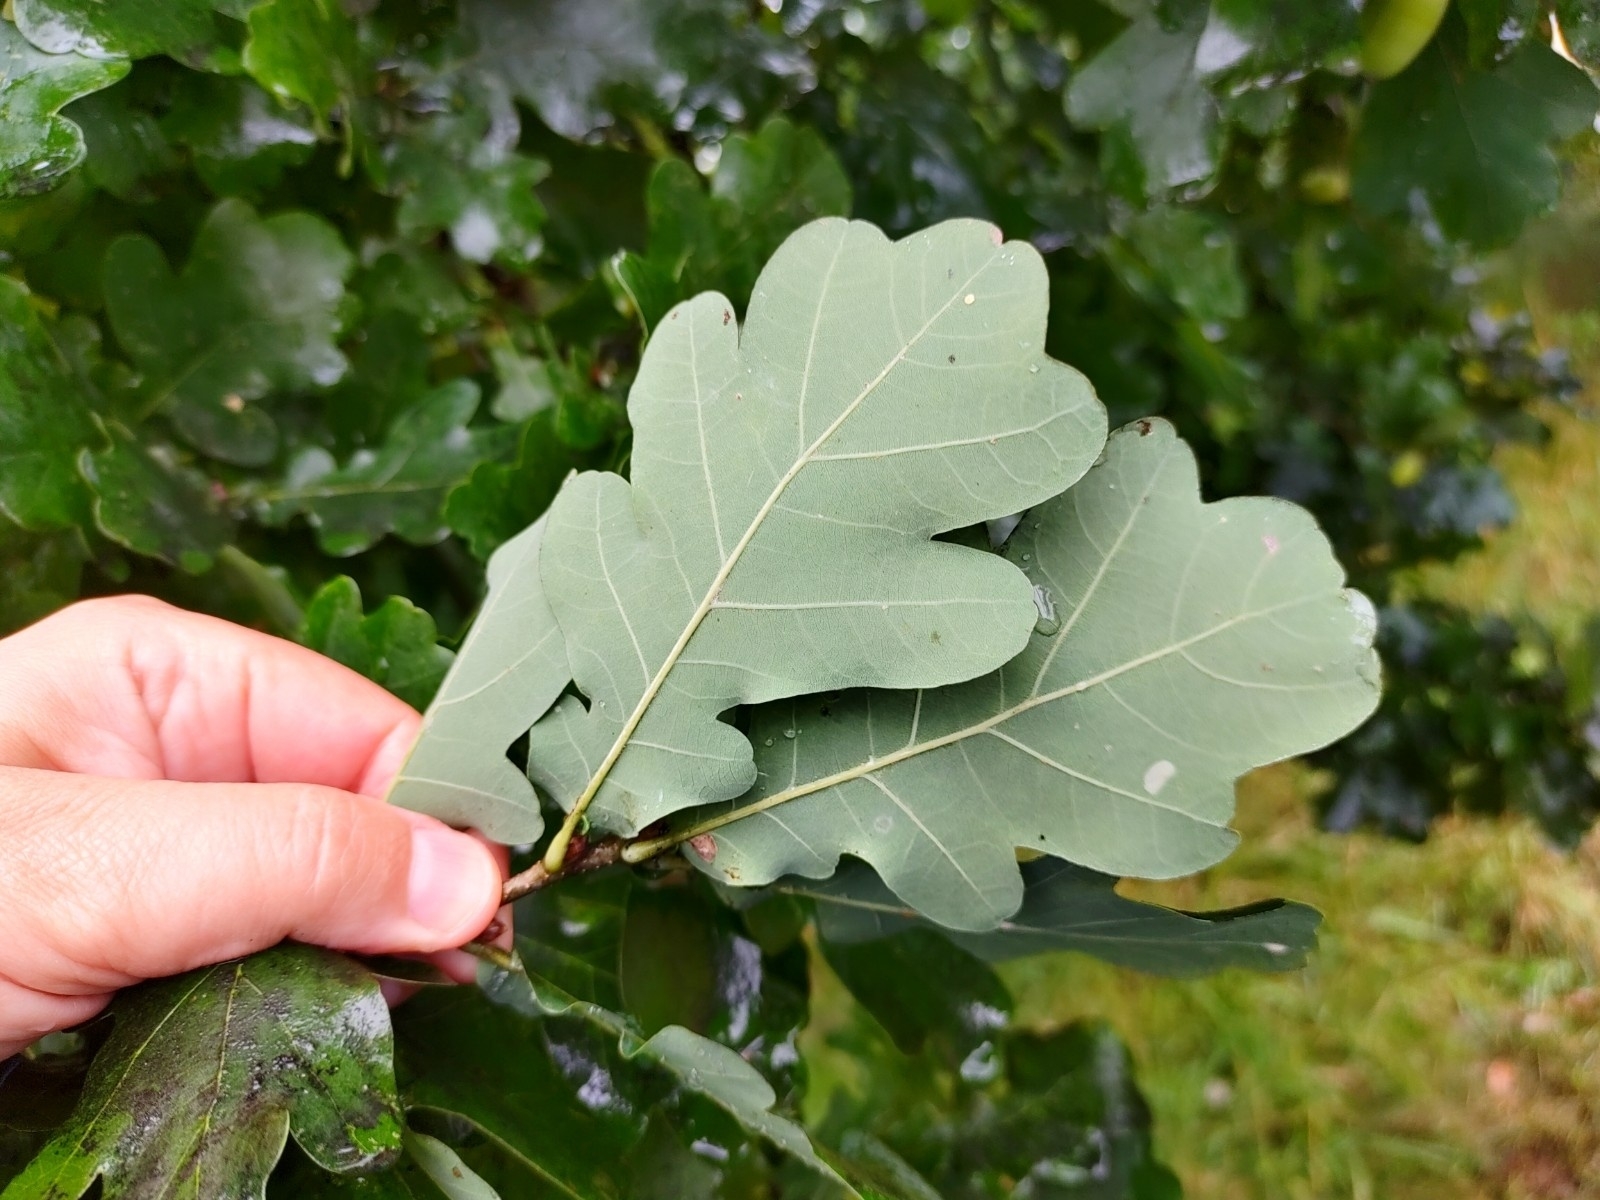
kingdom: Plantae
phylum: Tracheophyta
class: Magnoliopsida
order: Fagales
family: Fagaceae
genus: Quercus
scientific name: Quercus robur
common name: Pedunculate oak
